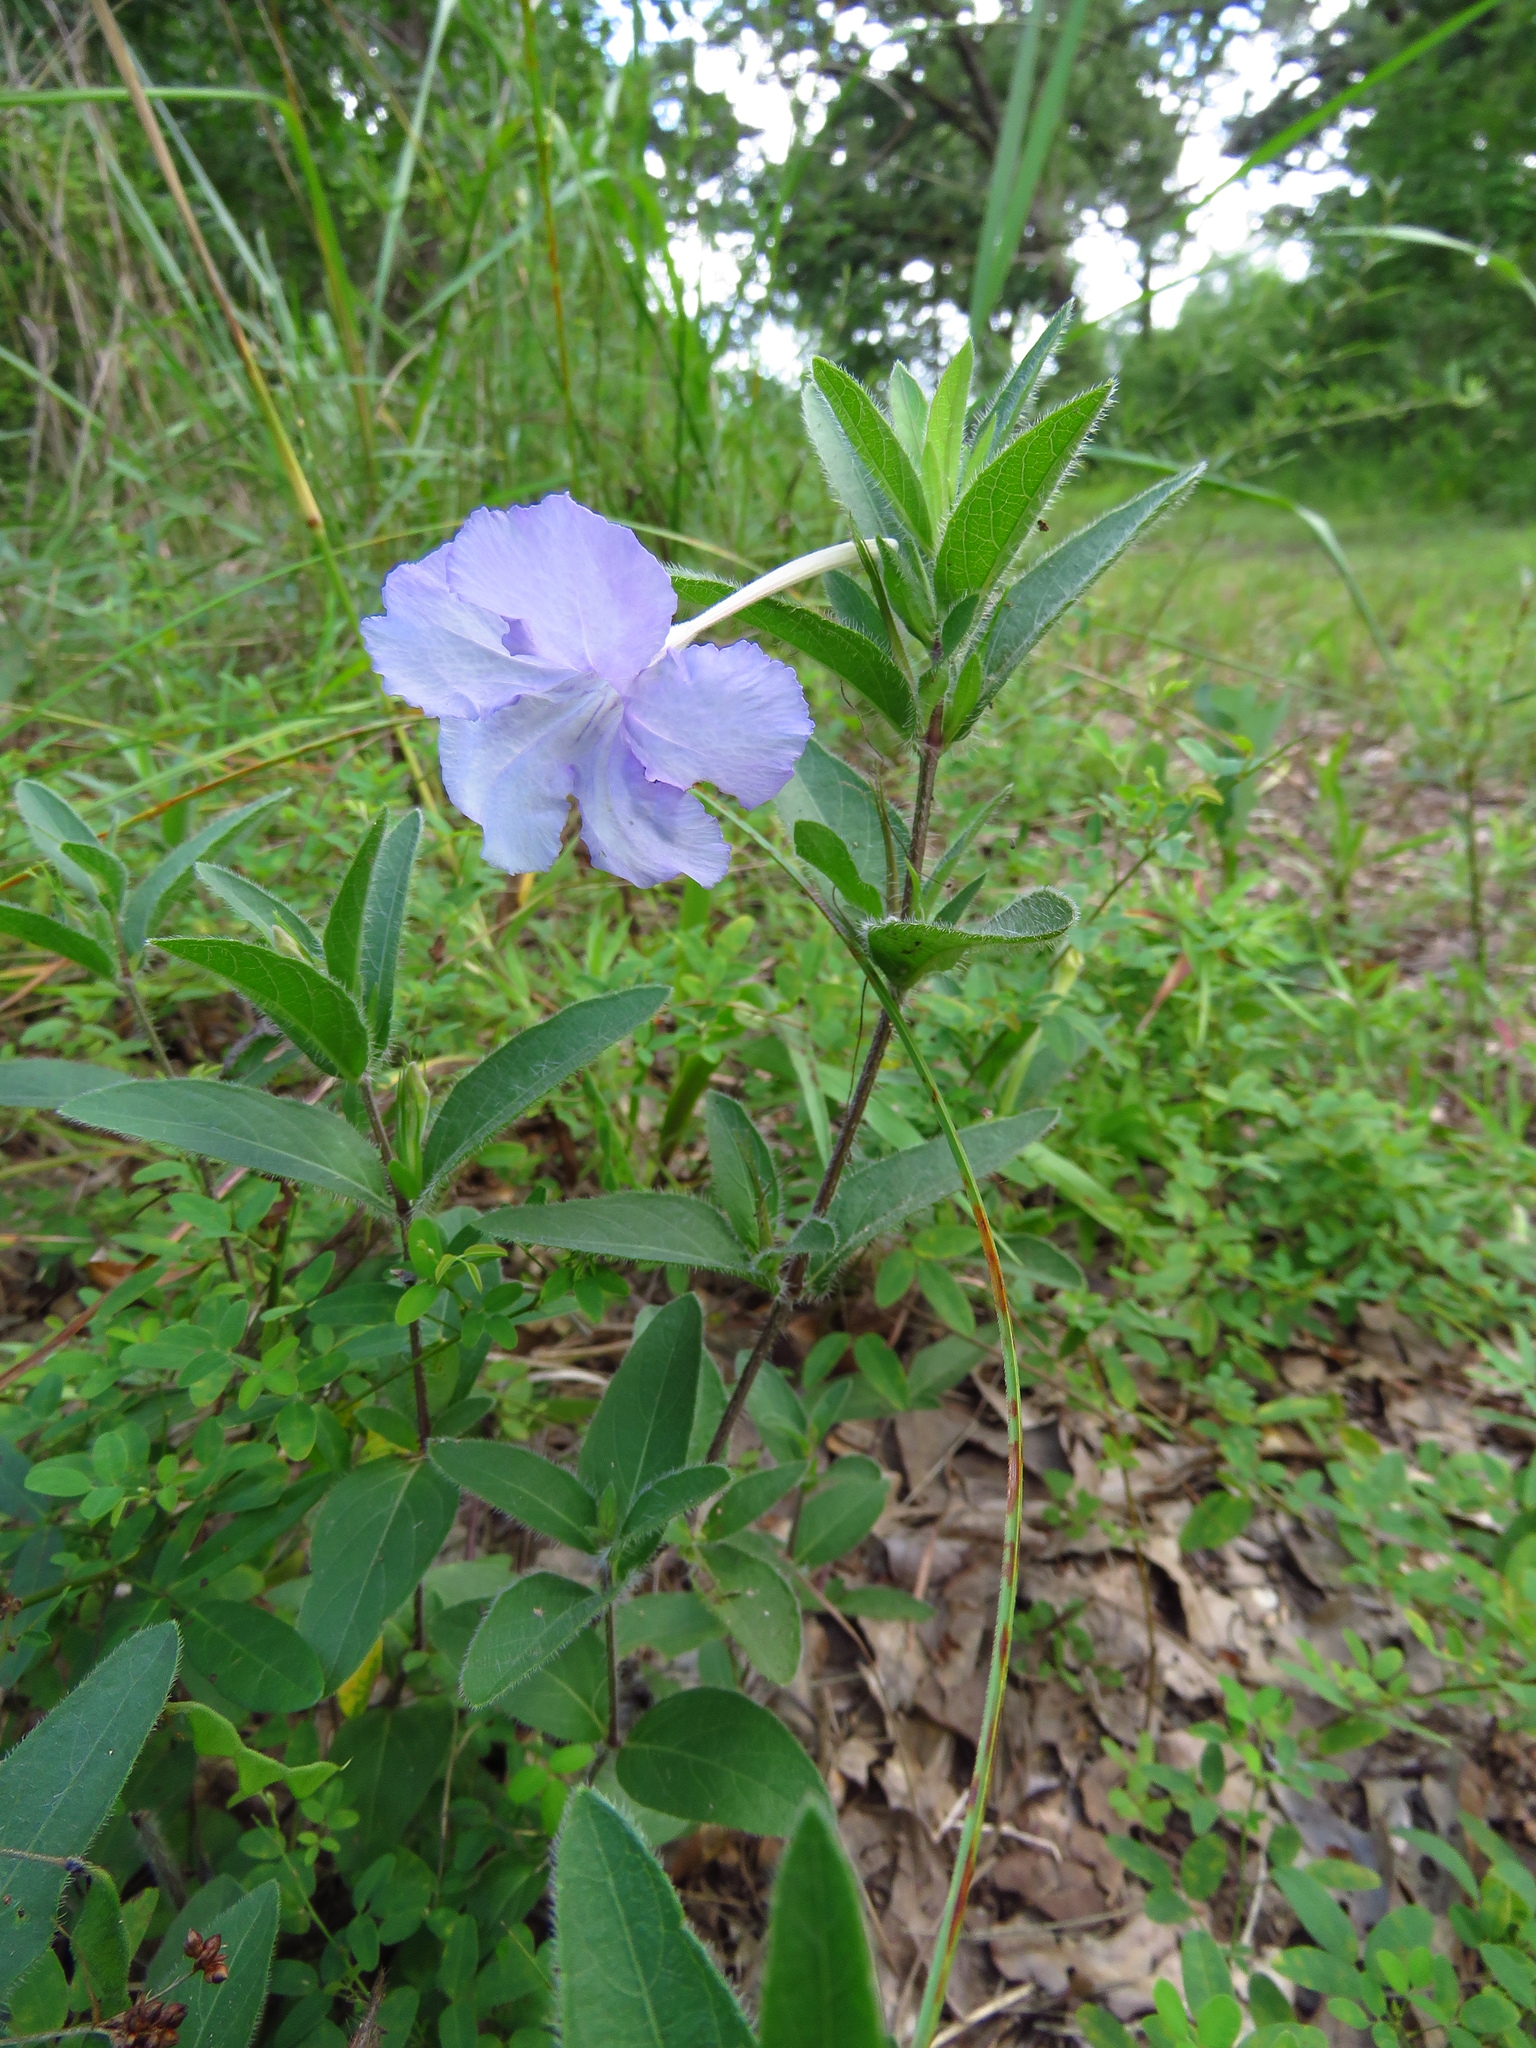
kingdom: Plantae
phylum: Tracheophyta
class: Magnoliopsida
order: Lamiales
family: Acanthaceae
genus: Ruellia
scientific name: Ruellia humilis
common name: Fringe-leaf ruellia
